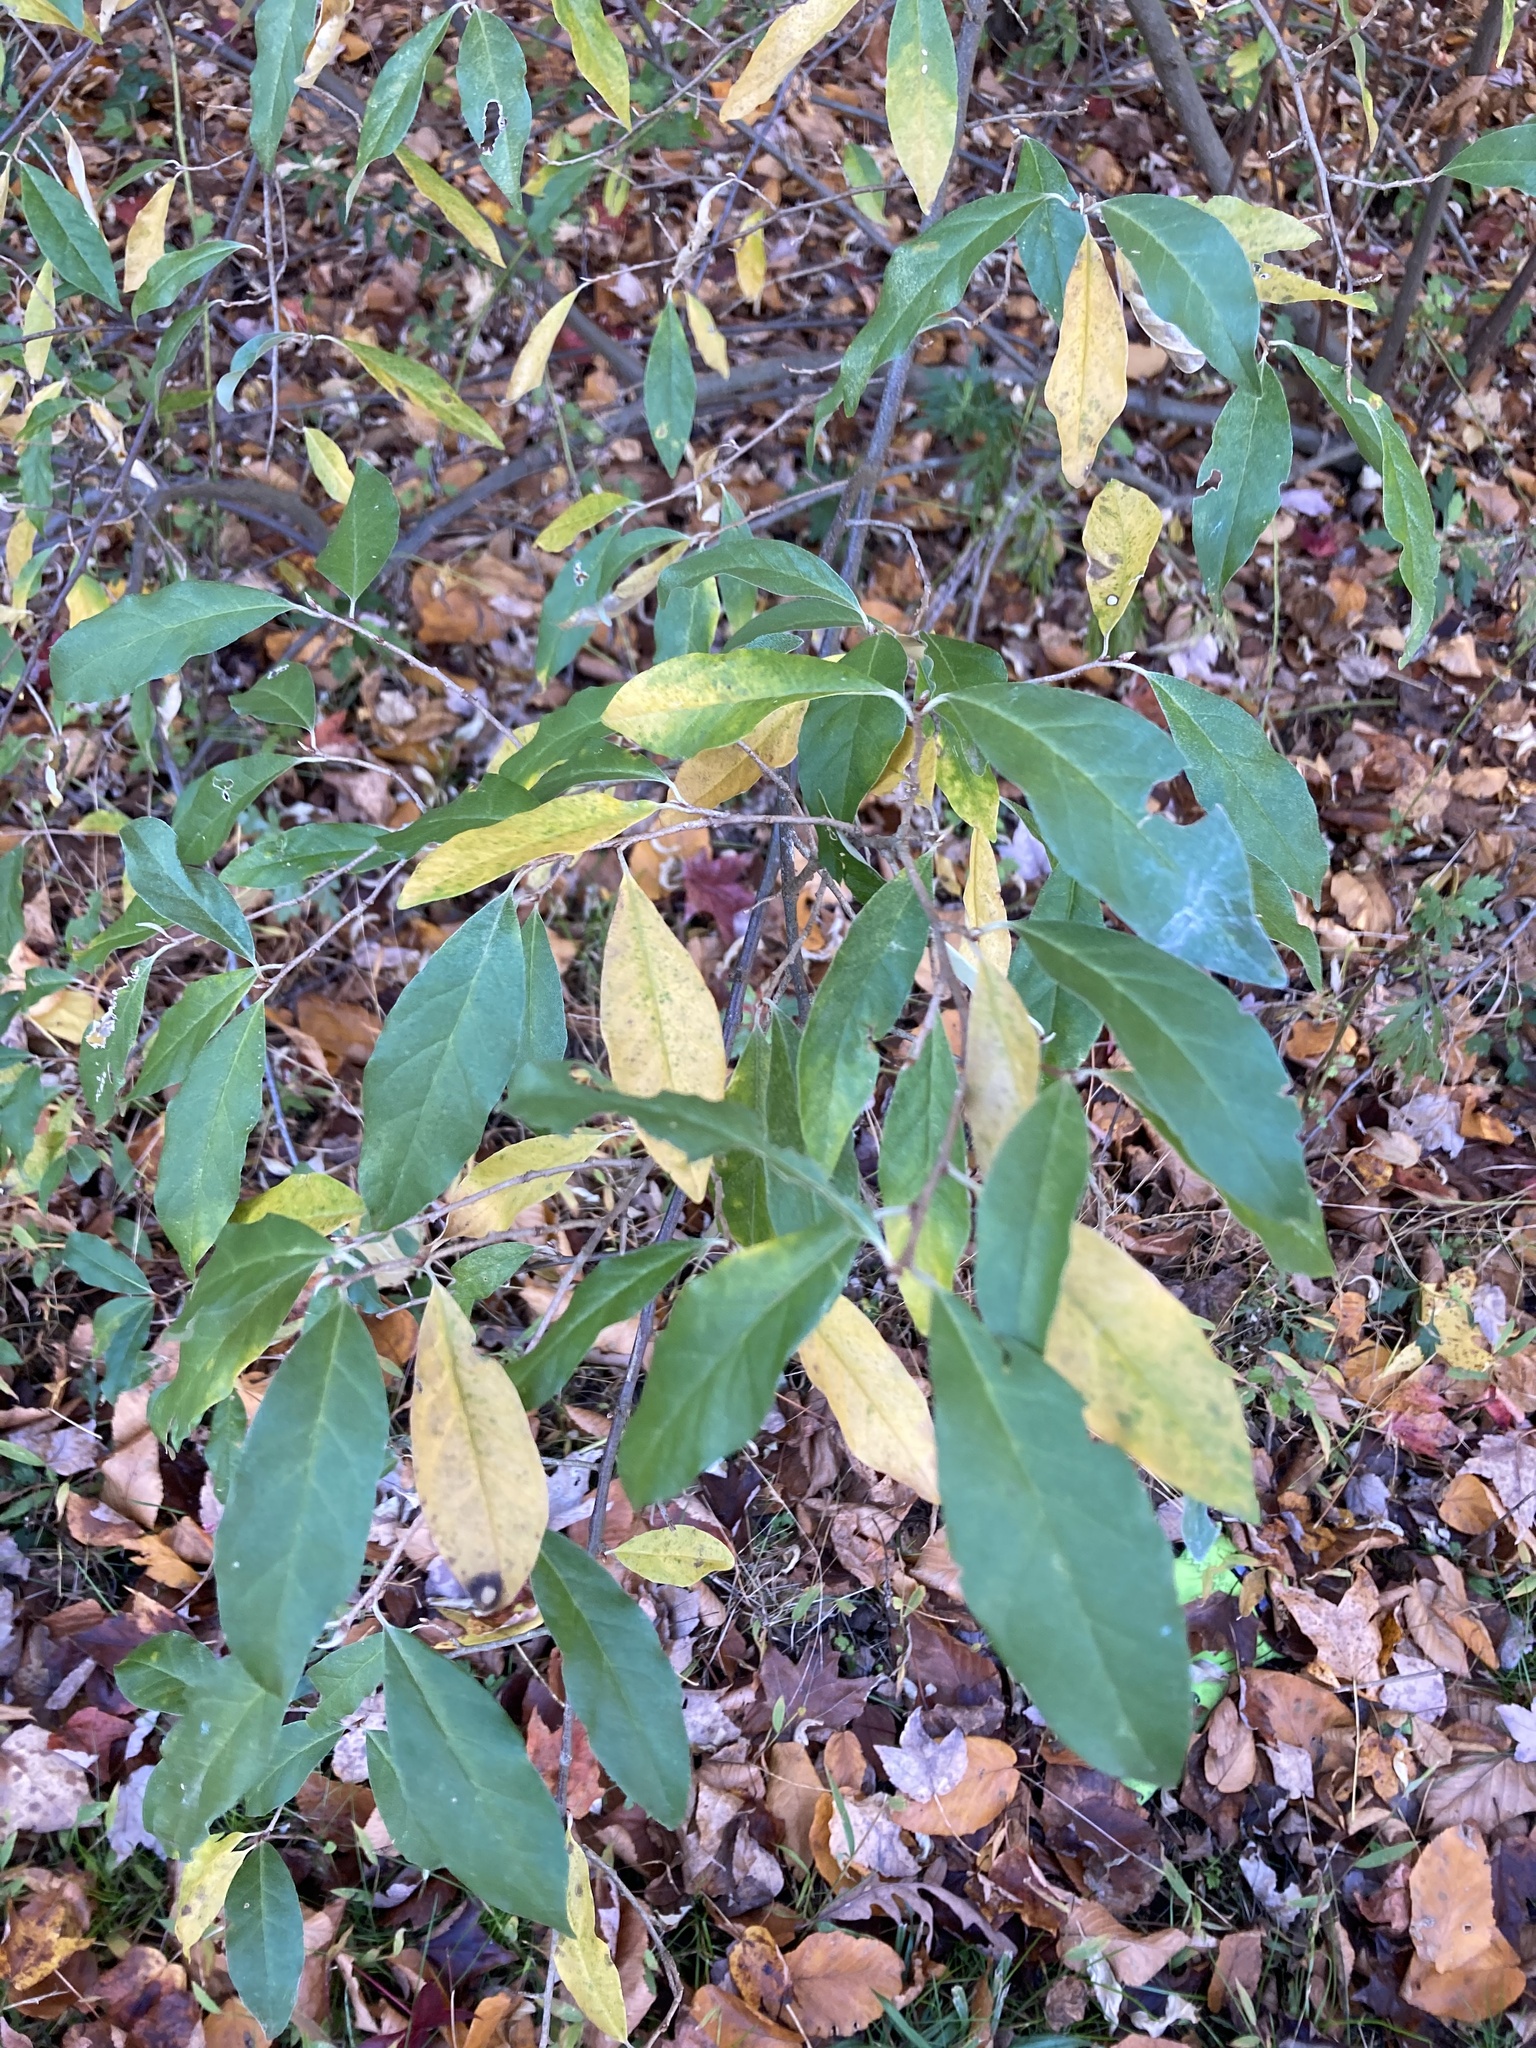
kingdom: Plantae
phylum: Tracheophyta
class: Magnoliopsida
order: Rosales
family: Elaeagnaceae
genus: Elaeagnus
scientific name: Elaeagnus umbellata
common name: Autumn olive
